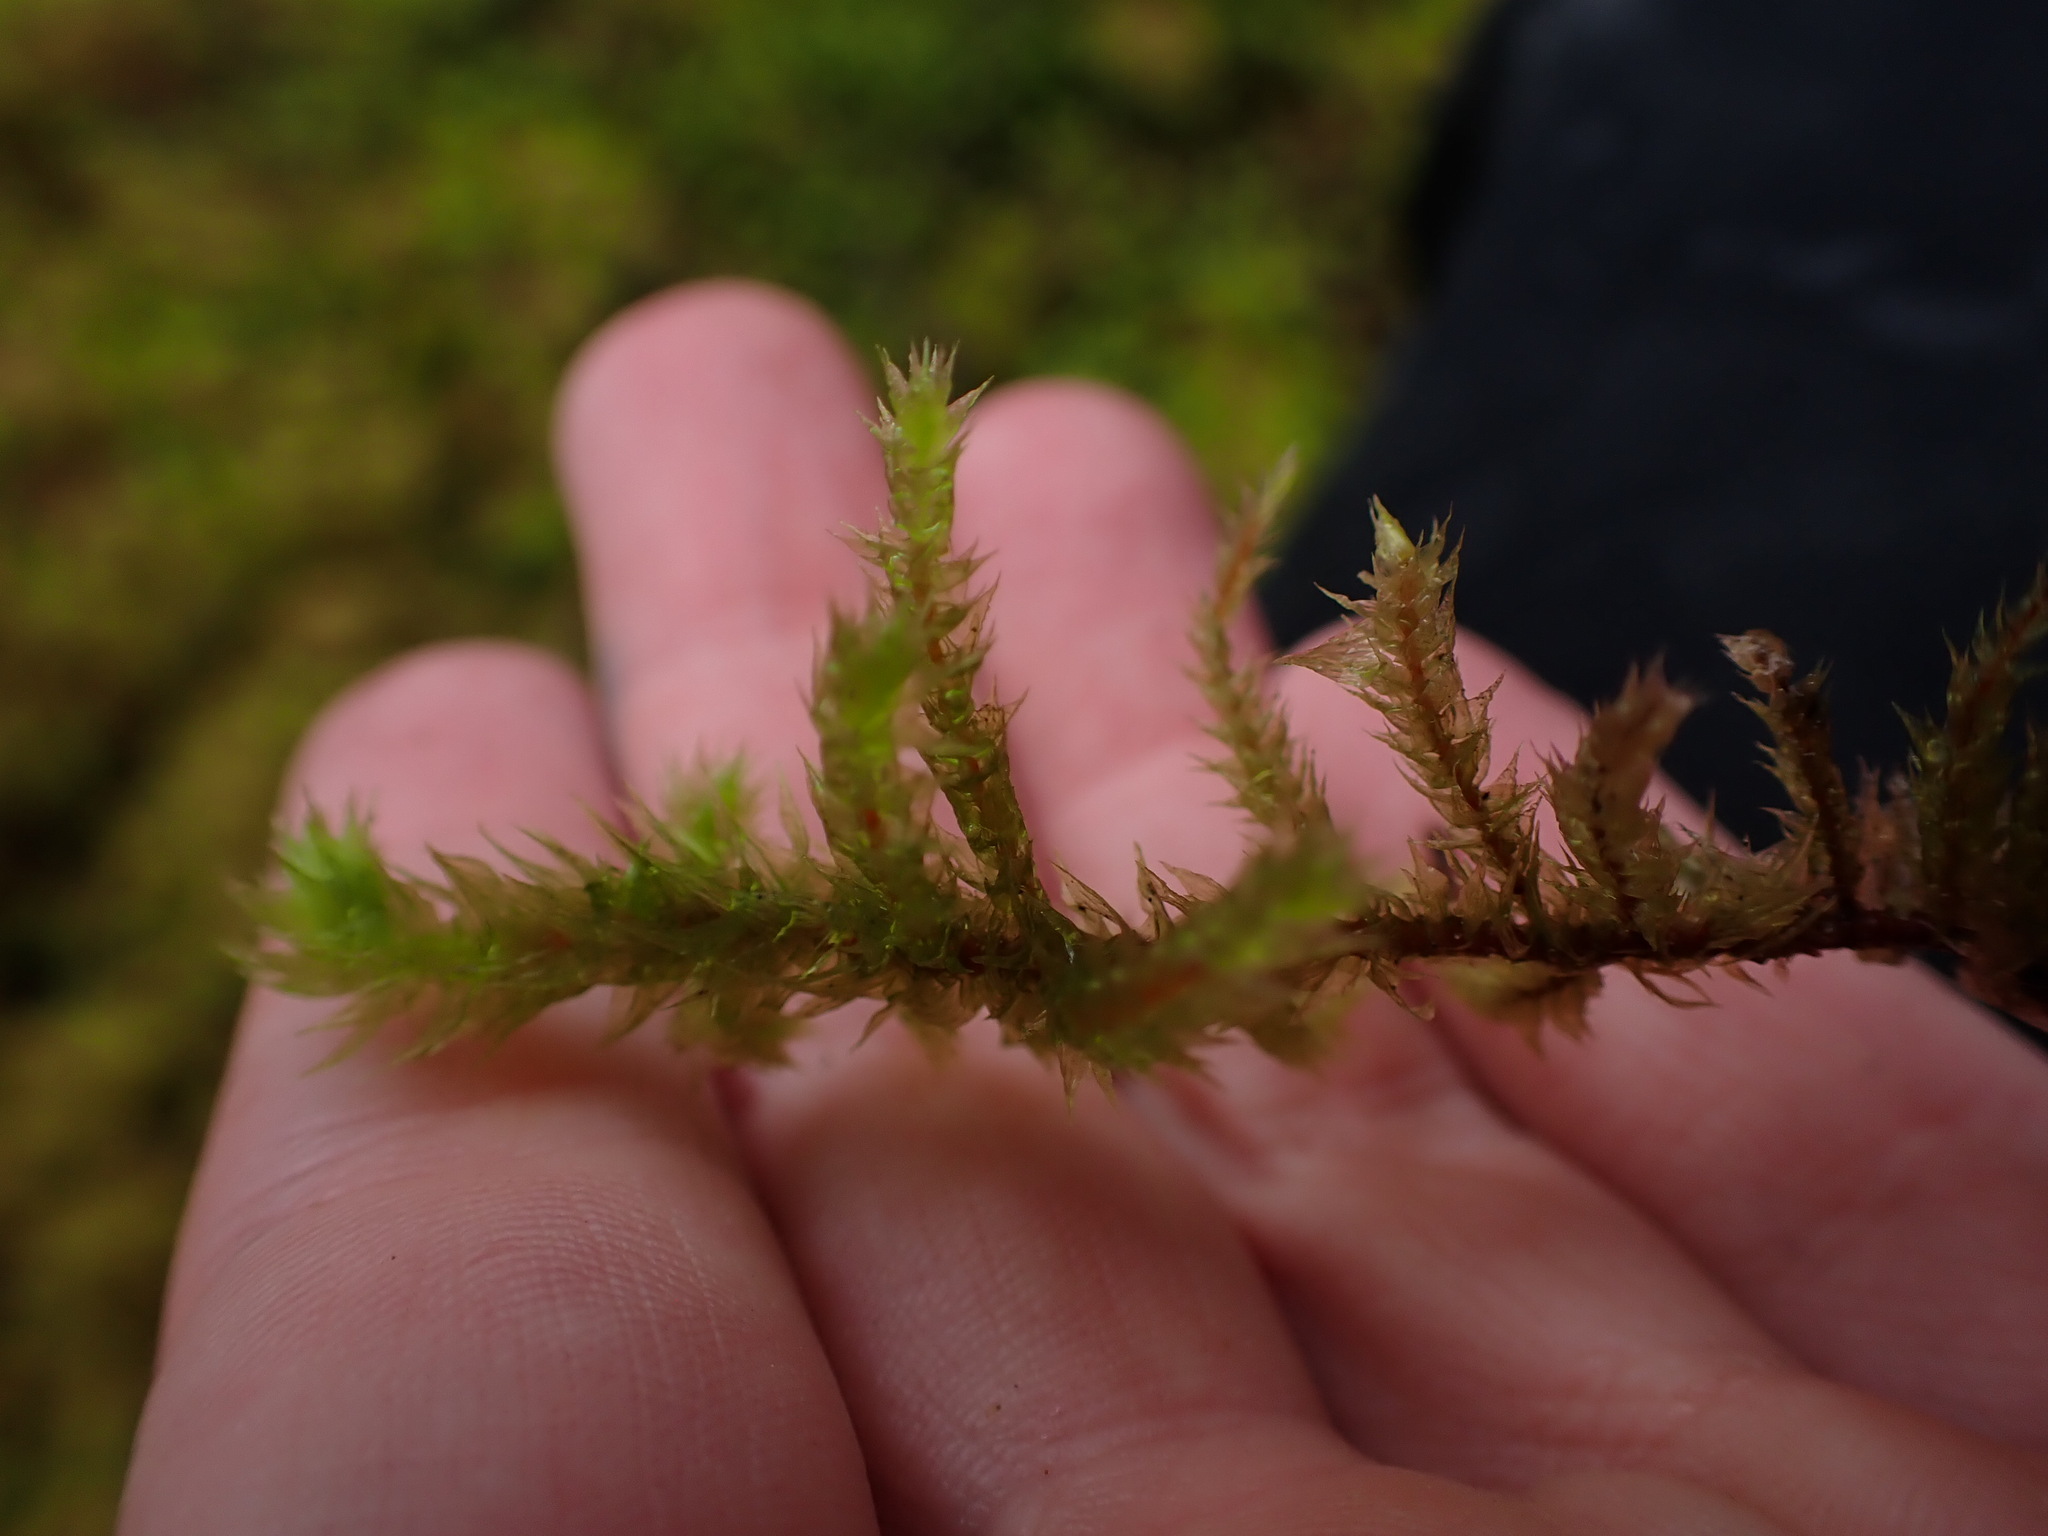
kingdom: Plantae
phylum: Bryophyta
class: Bryopsida
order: Hypnales
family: Hylocomiaceae
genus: Hylocomiadelphus
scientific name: Hylocomiadelphus triquetrus
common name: Rough goose neck moss
